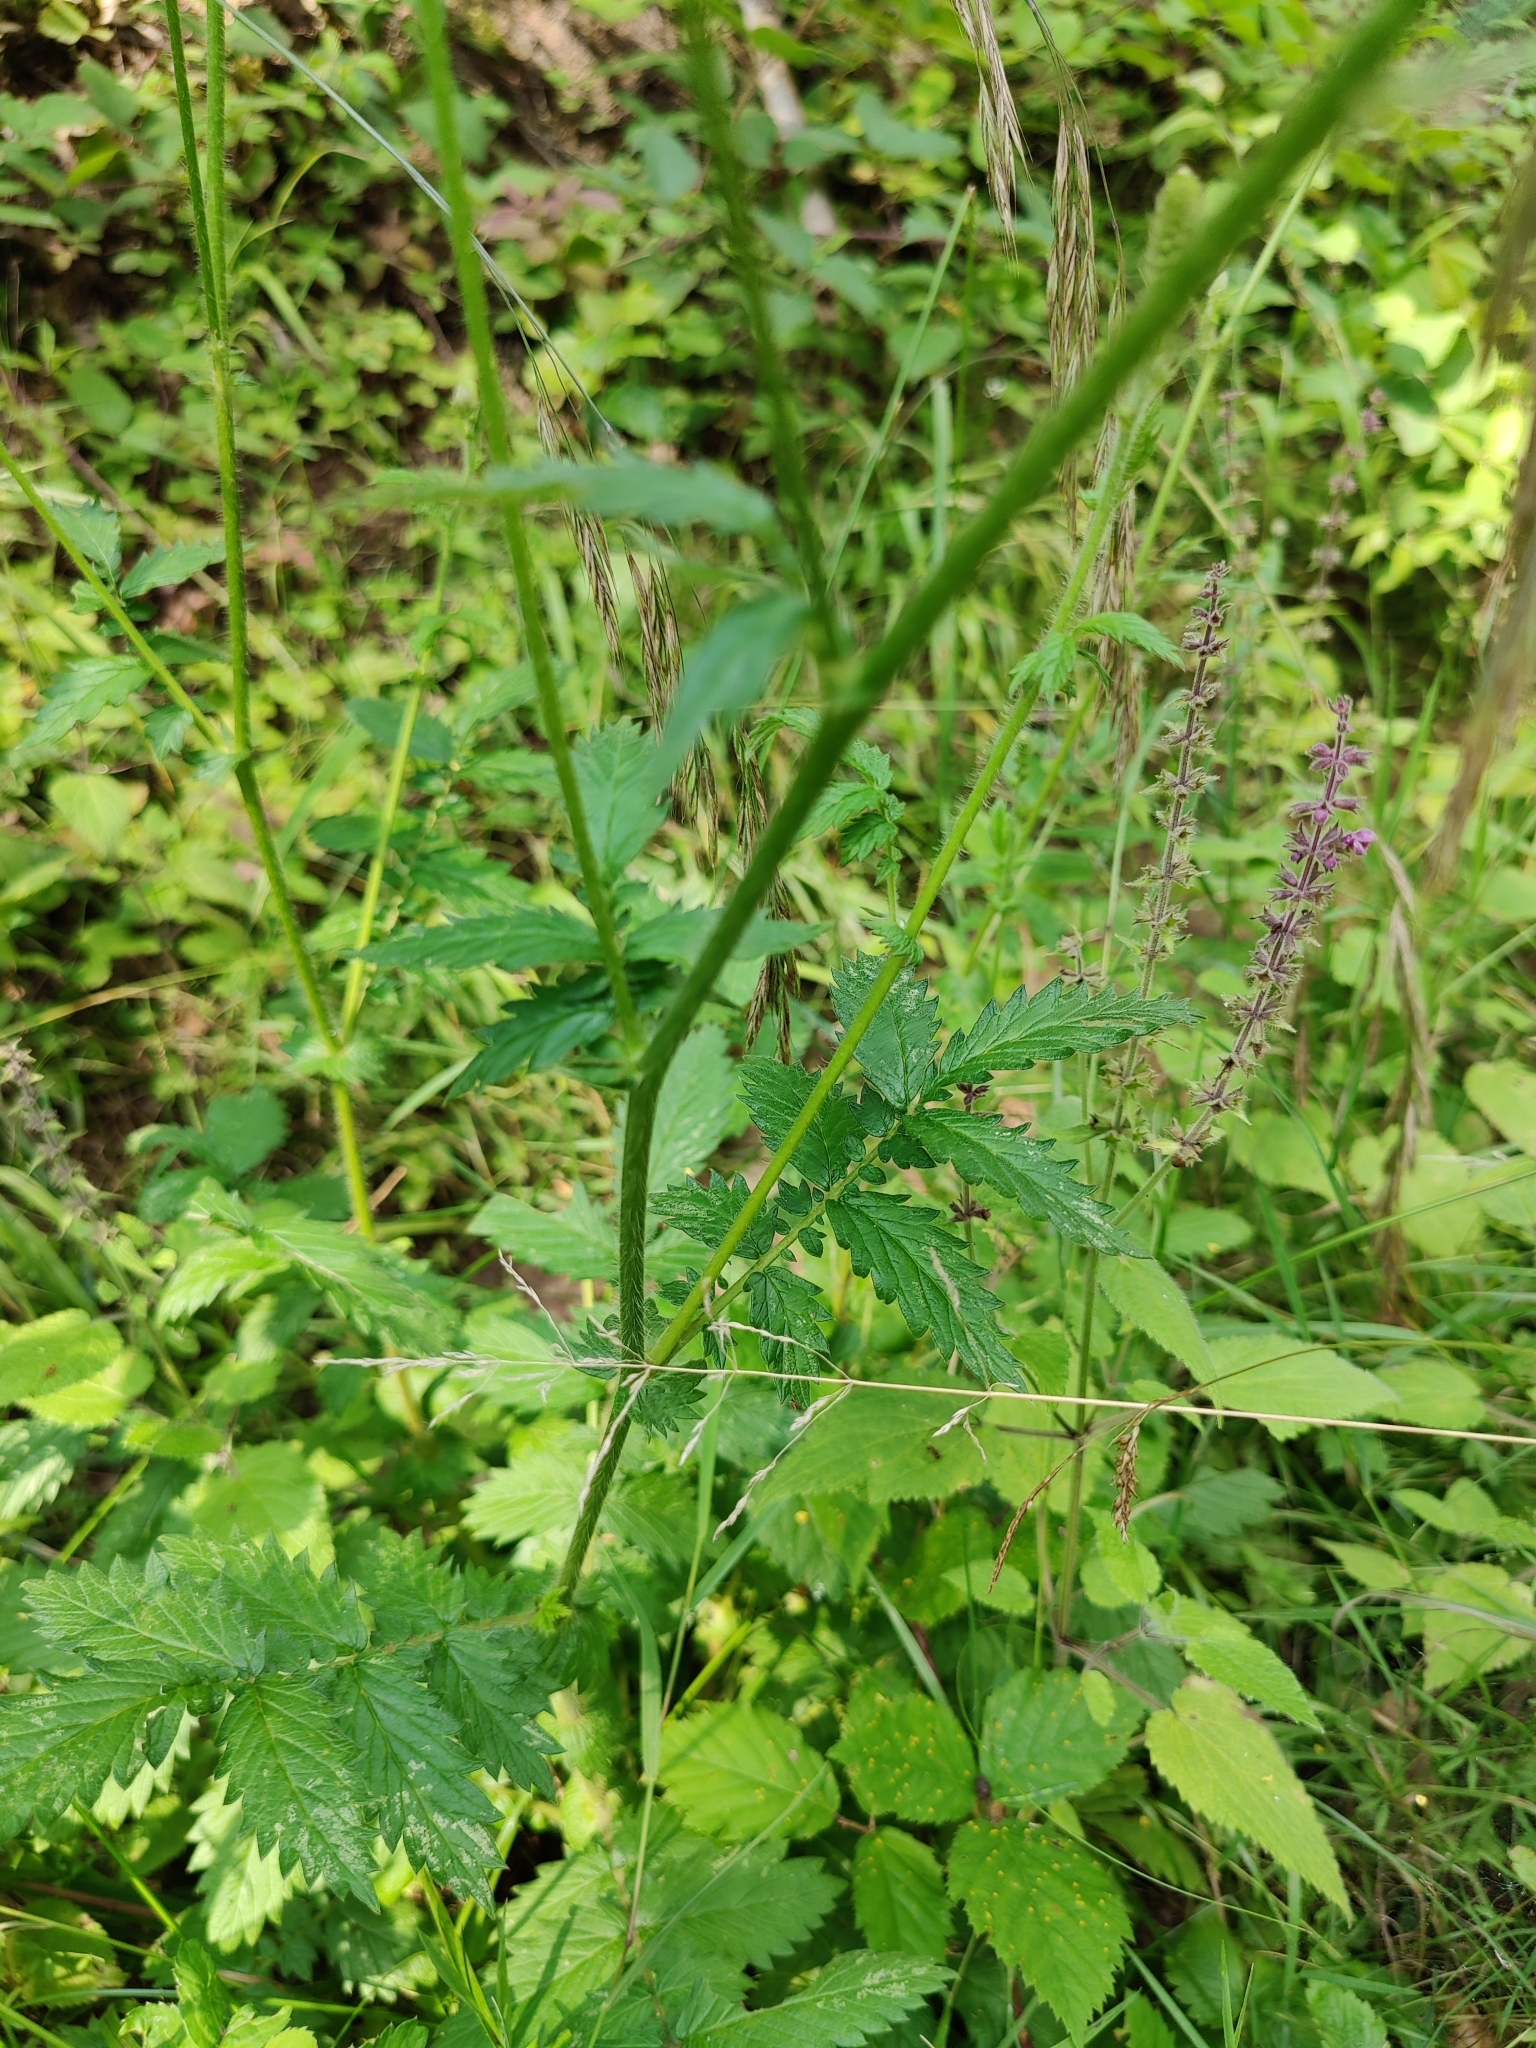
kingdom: Plantae
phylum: Tracheophyta
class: Magnoliopsida
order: Rosales
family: Rosaceae
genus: Agrimonia
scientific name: Agrimonia eupatoria
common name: Agrimony
